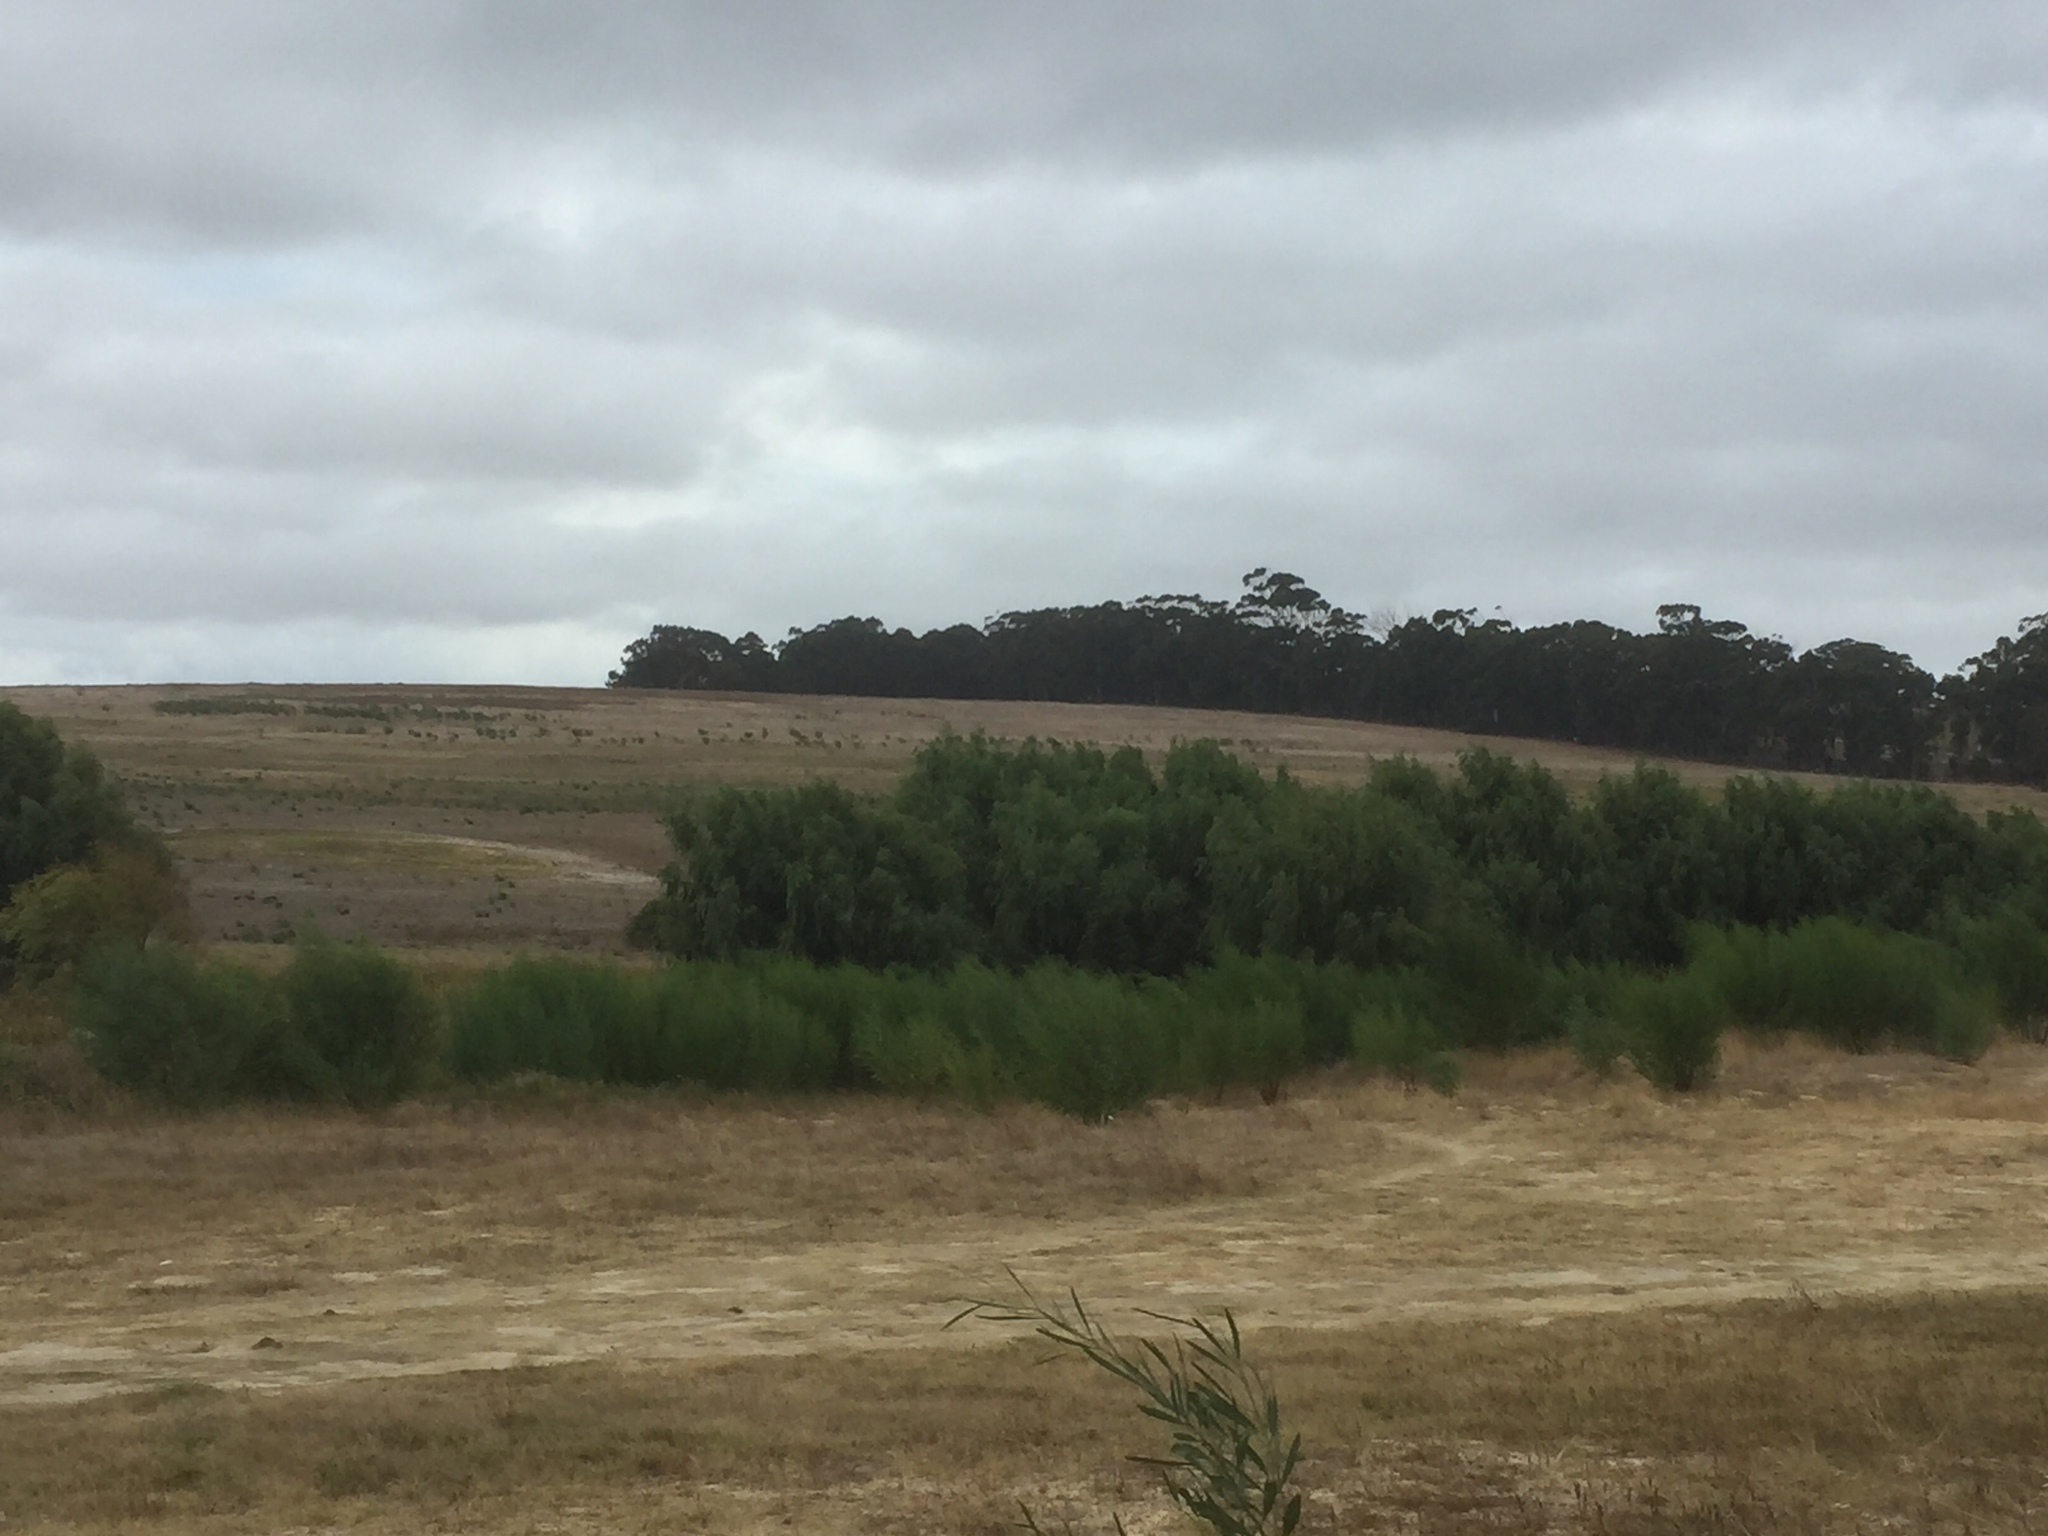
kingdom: Plantae
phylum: Tracheophyta
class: Magnoliopsida
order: Malpighiales
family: Salicaceae
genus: Salix
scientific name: Salix babylonica
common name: Weeping willow
